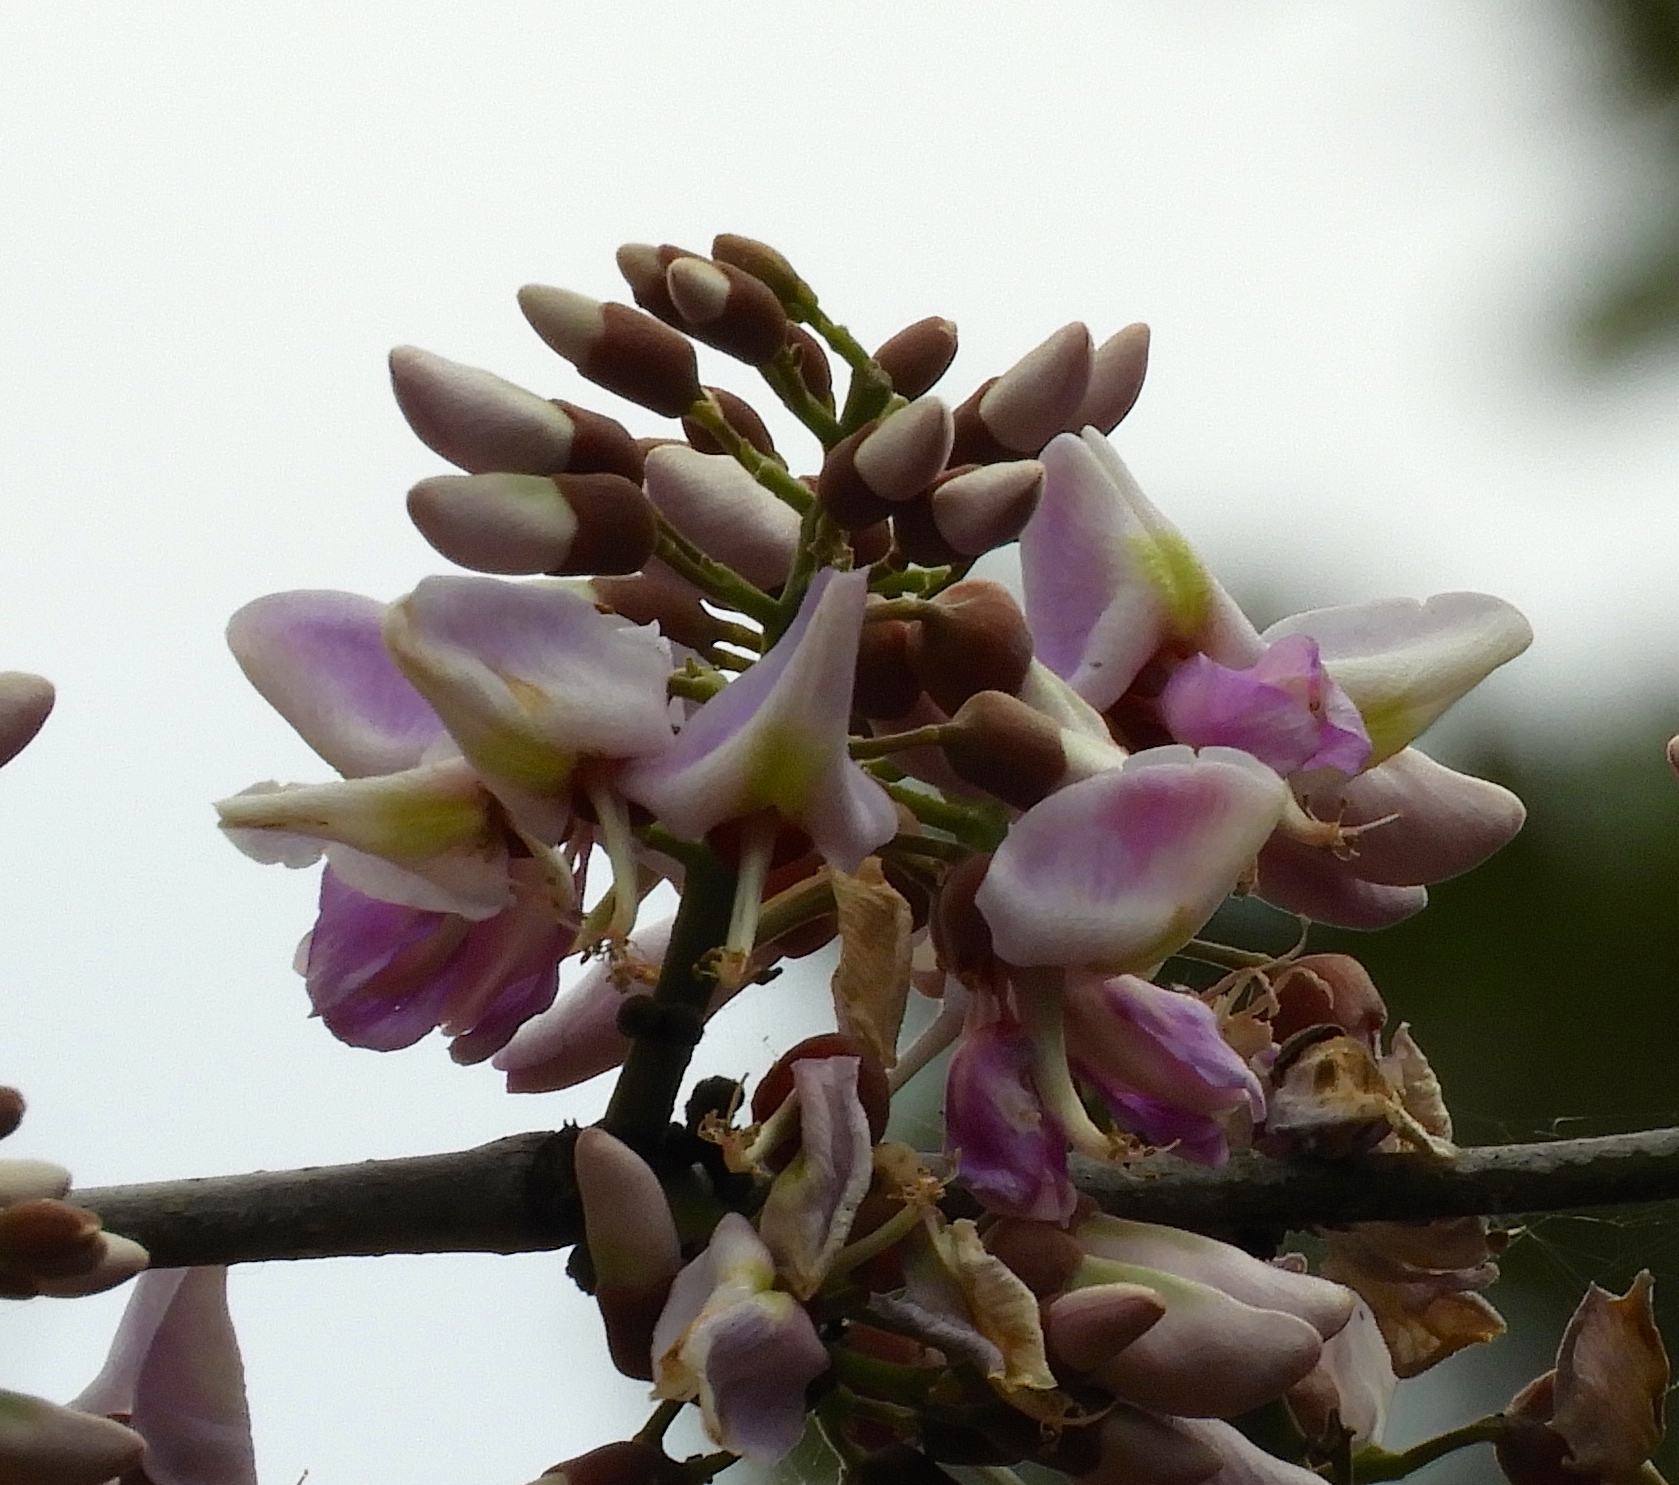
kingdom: Plantae
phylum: Tracheophyta
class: Magnoliopsida
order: Fabales
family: Fabaceae
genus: Gliricidia
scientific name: Gliricidia sepium
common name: Quickstick
